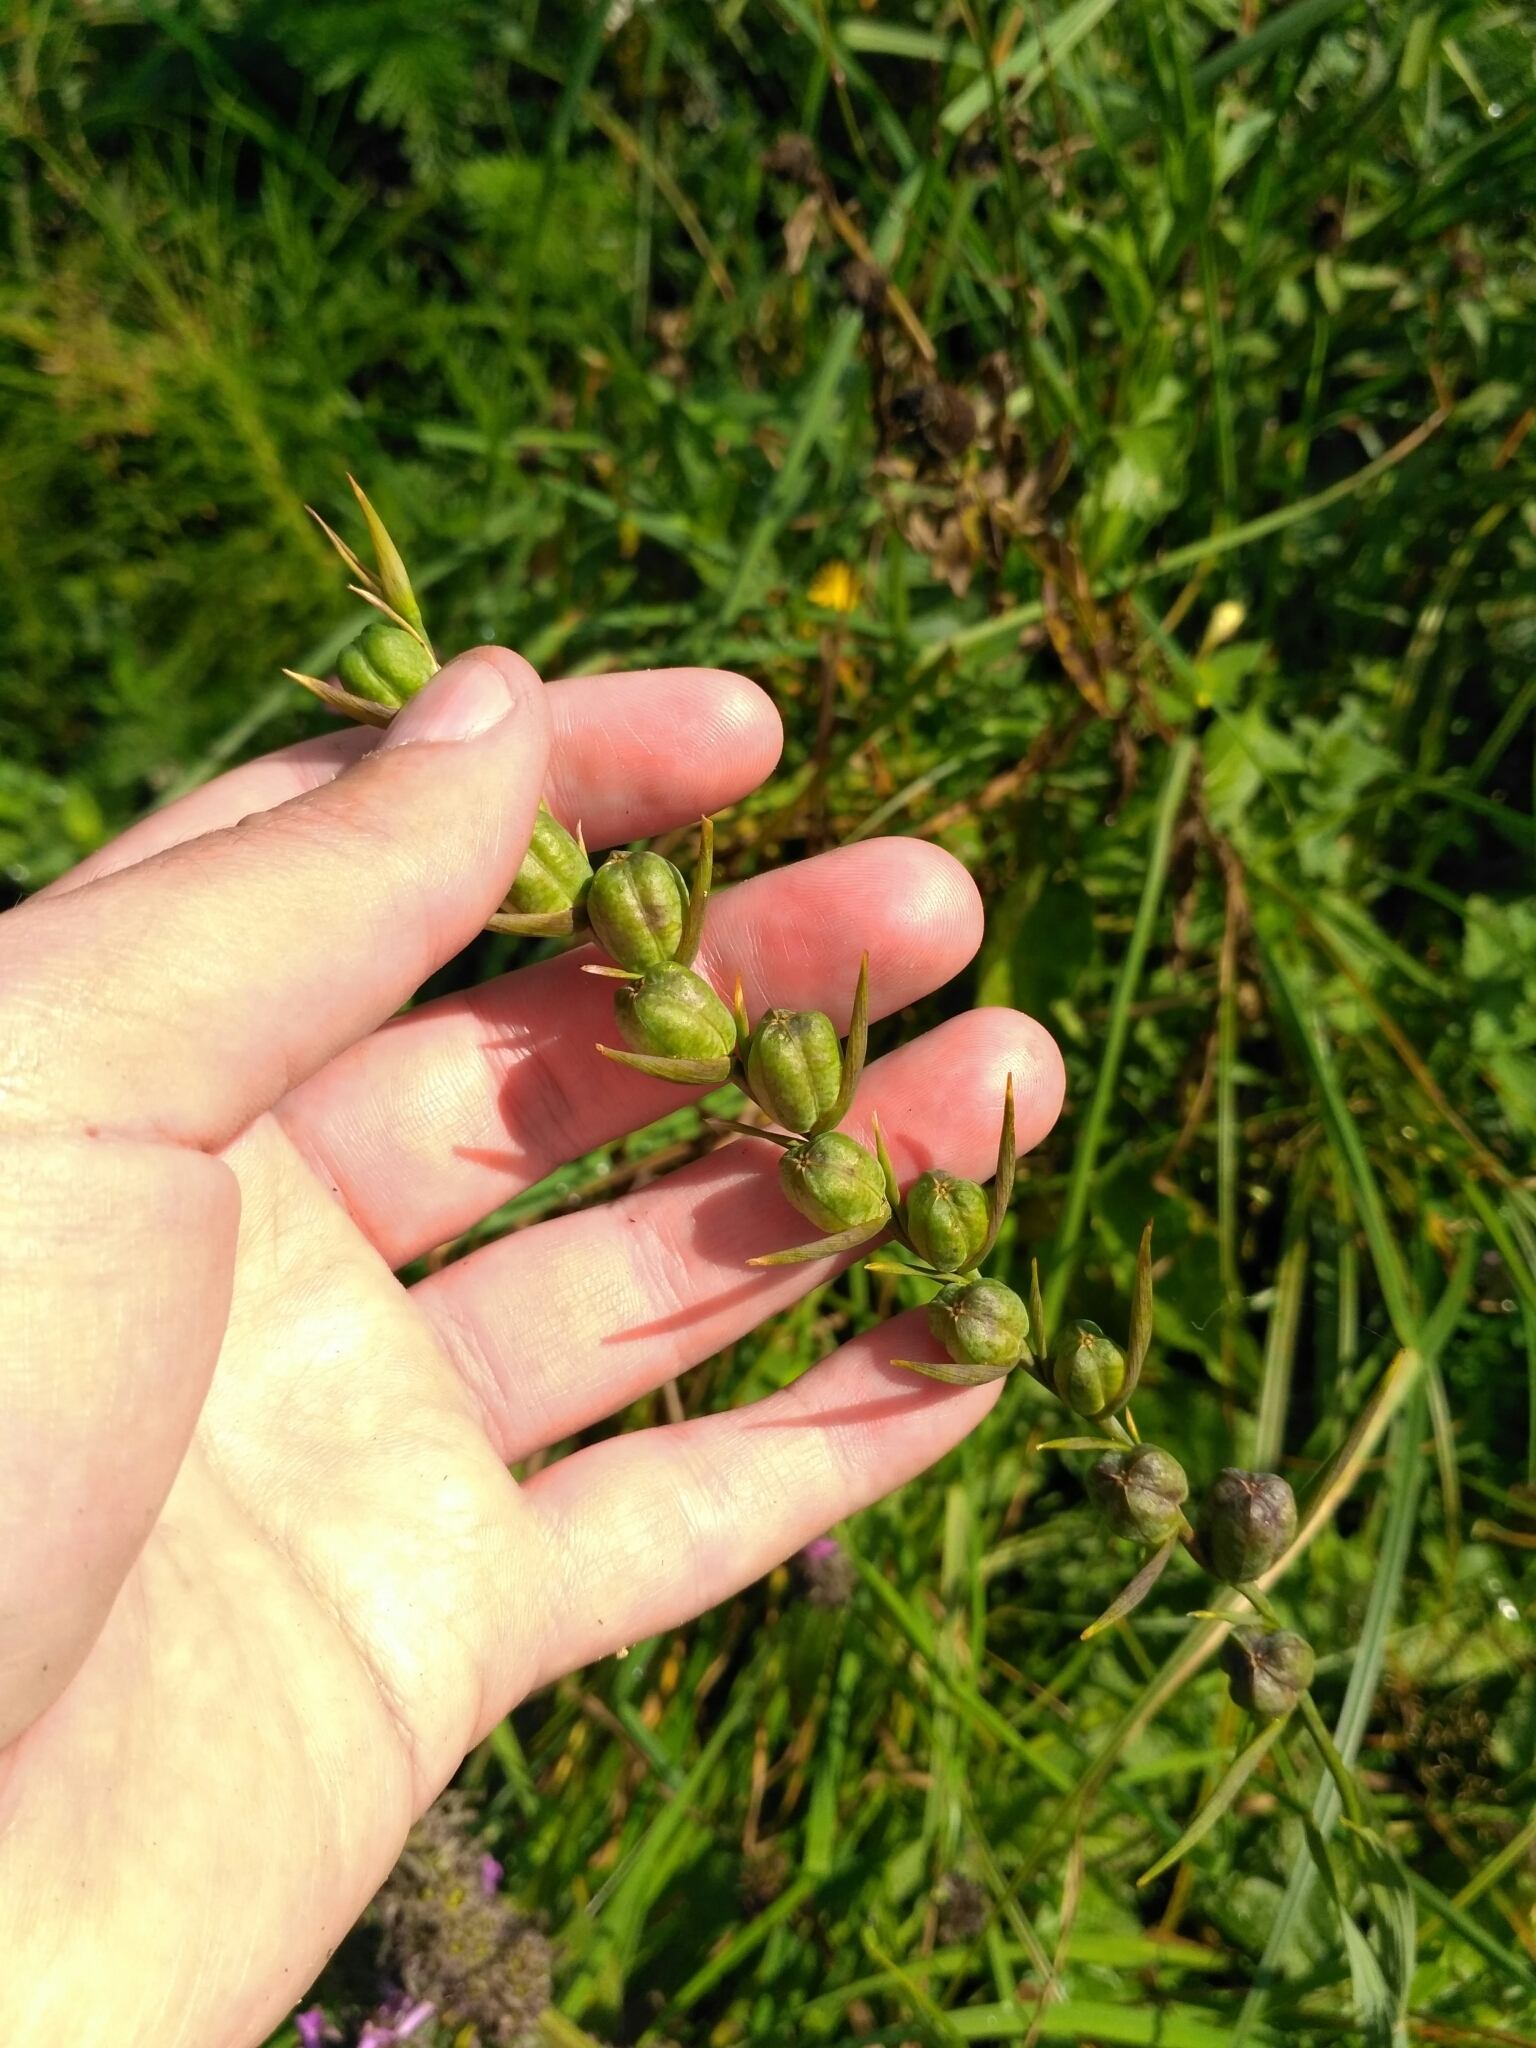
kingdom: Plantae
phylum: Tracheophyta
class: Liliopsida
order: Asparagales
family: Iridaceae
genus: Gladiolus
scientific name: Gladiolus imbricatus
